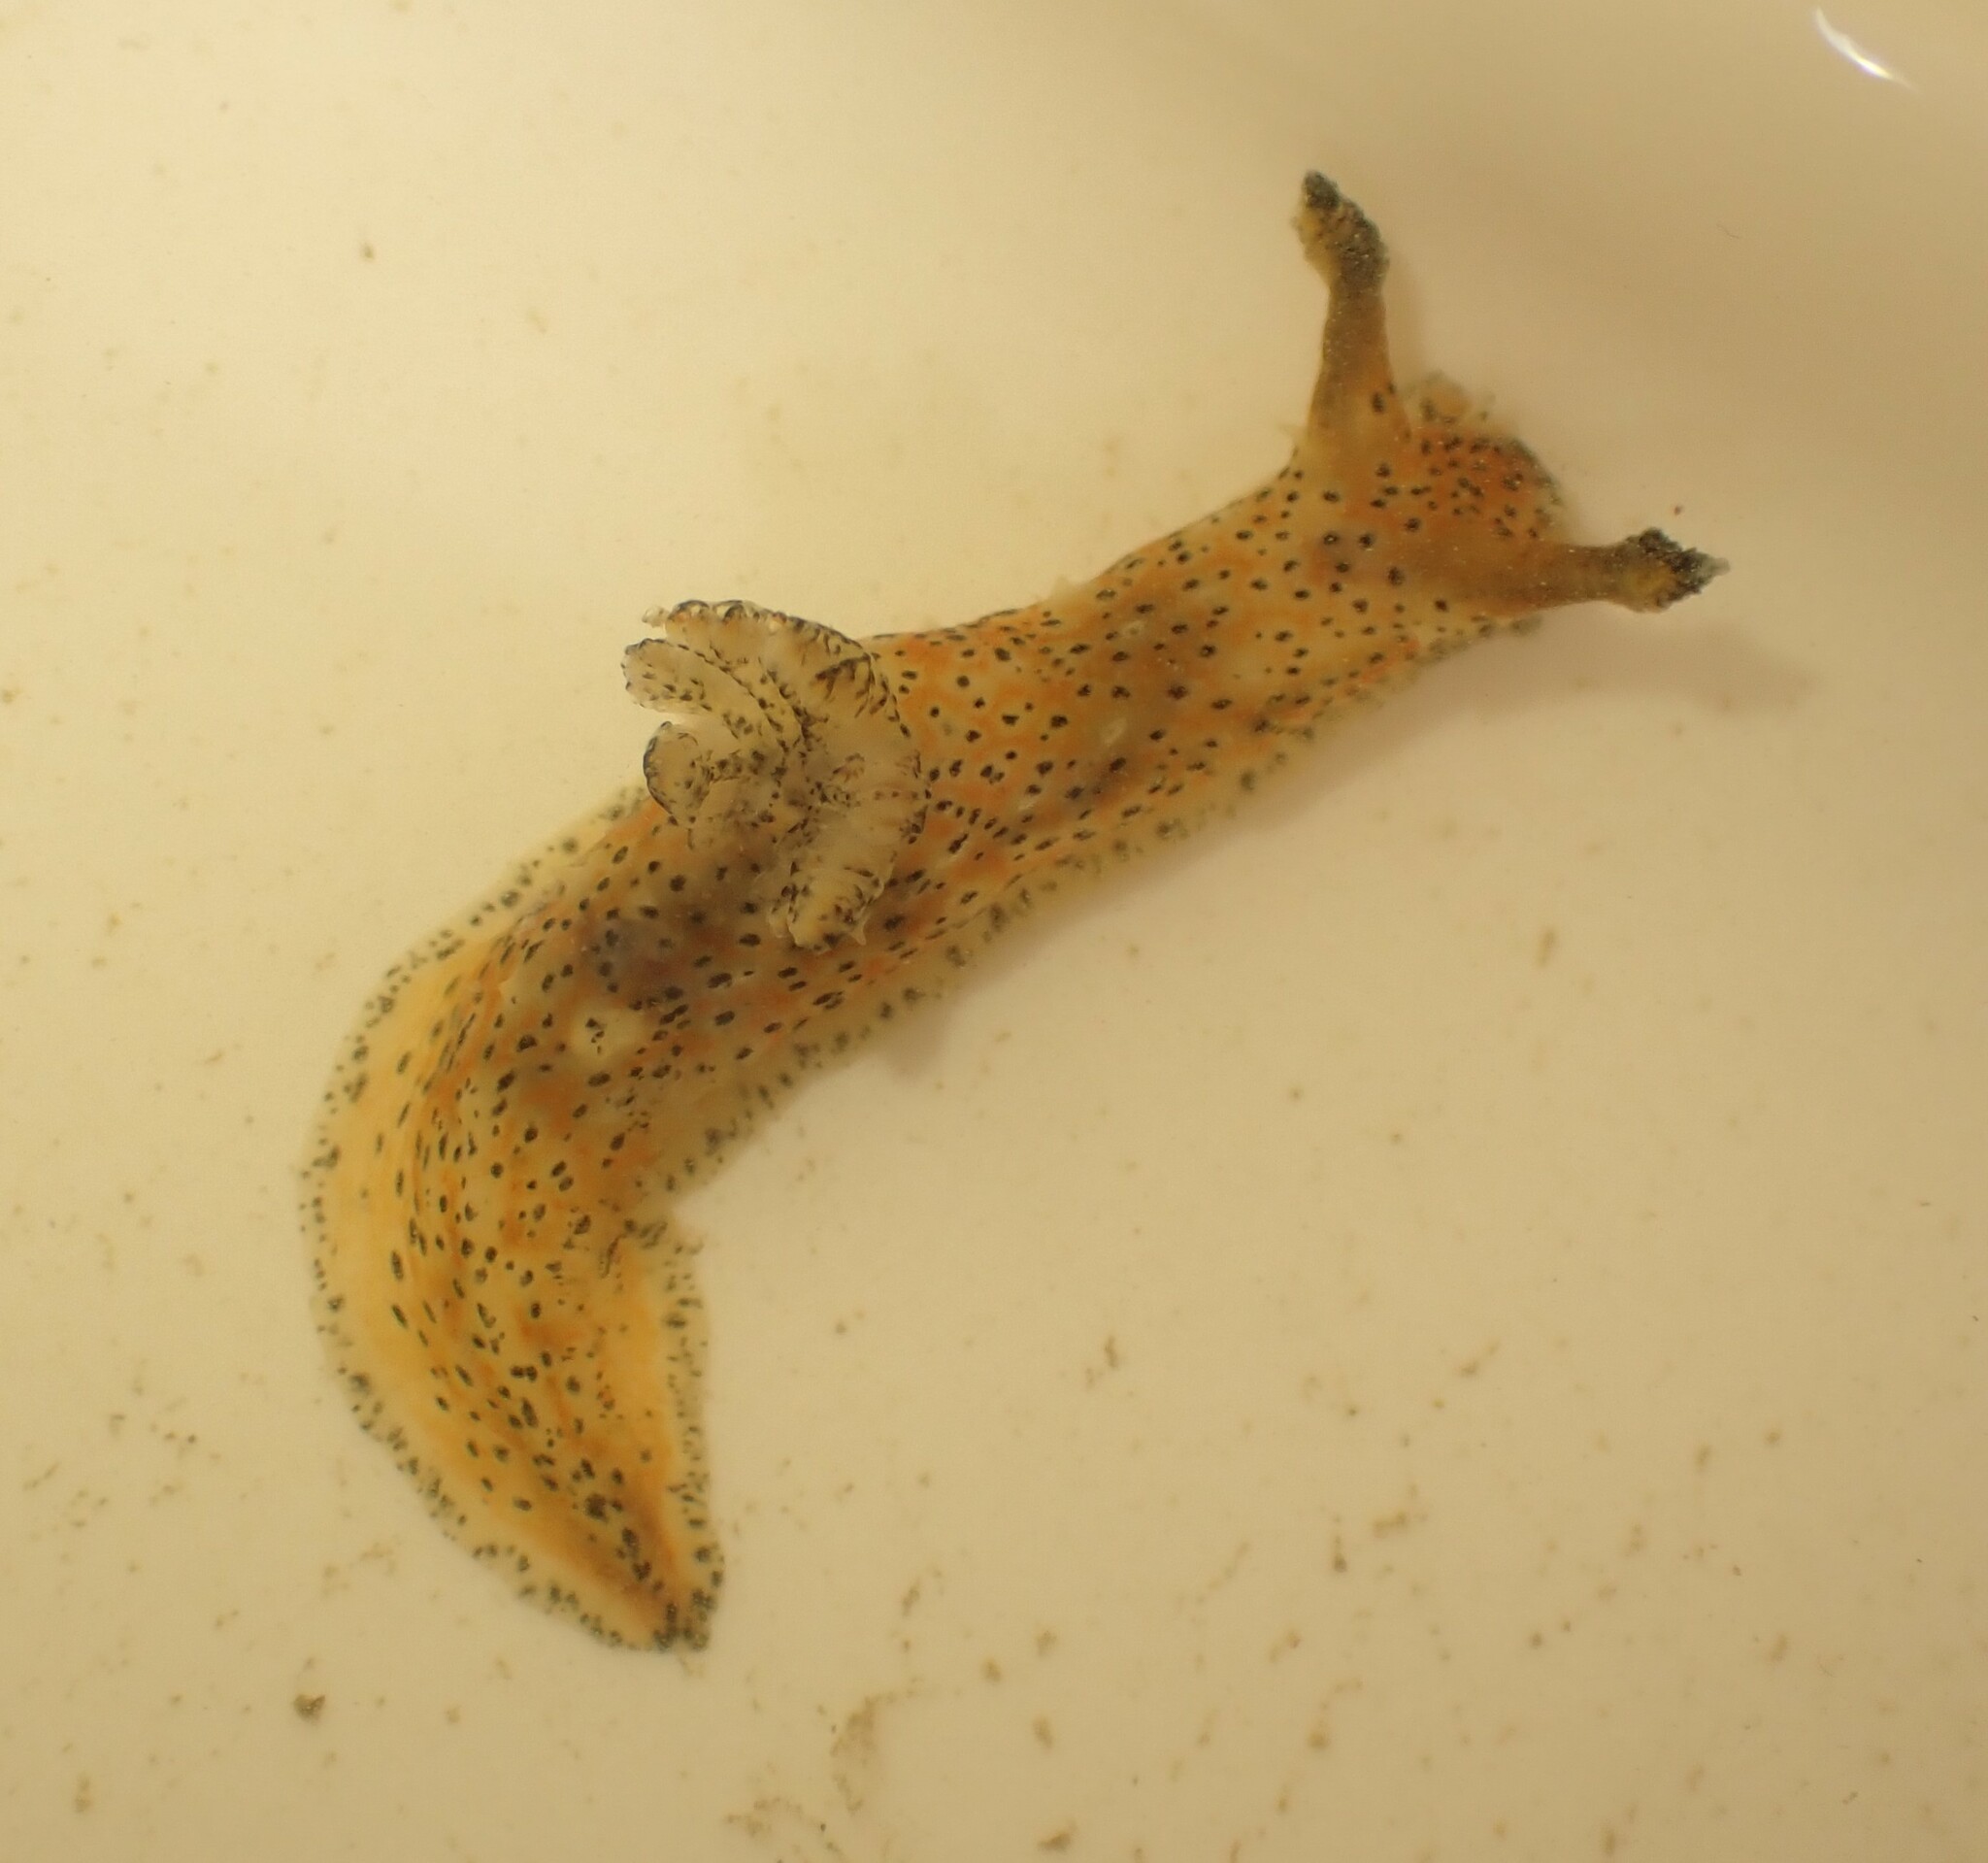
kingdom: Animalia
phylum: Mollusca
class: Gastropoda
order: Nudibranchia
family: Polyceridae
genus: Polycera
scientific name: Polycera fujitai
